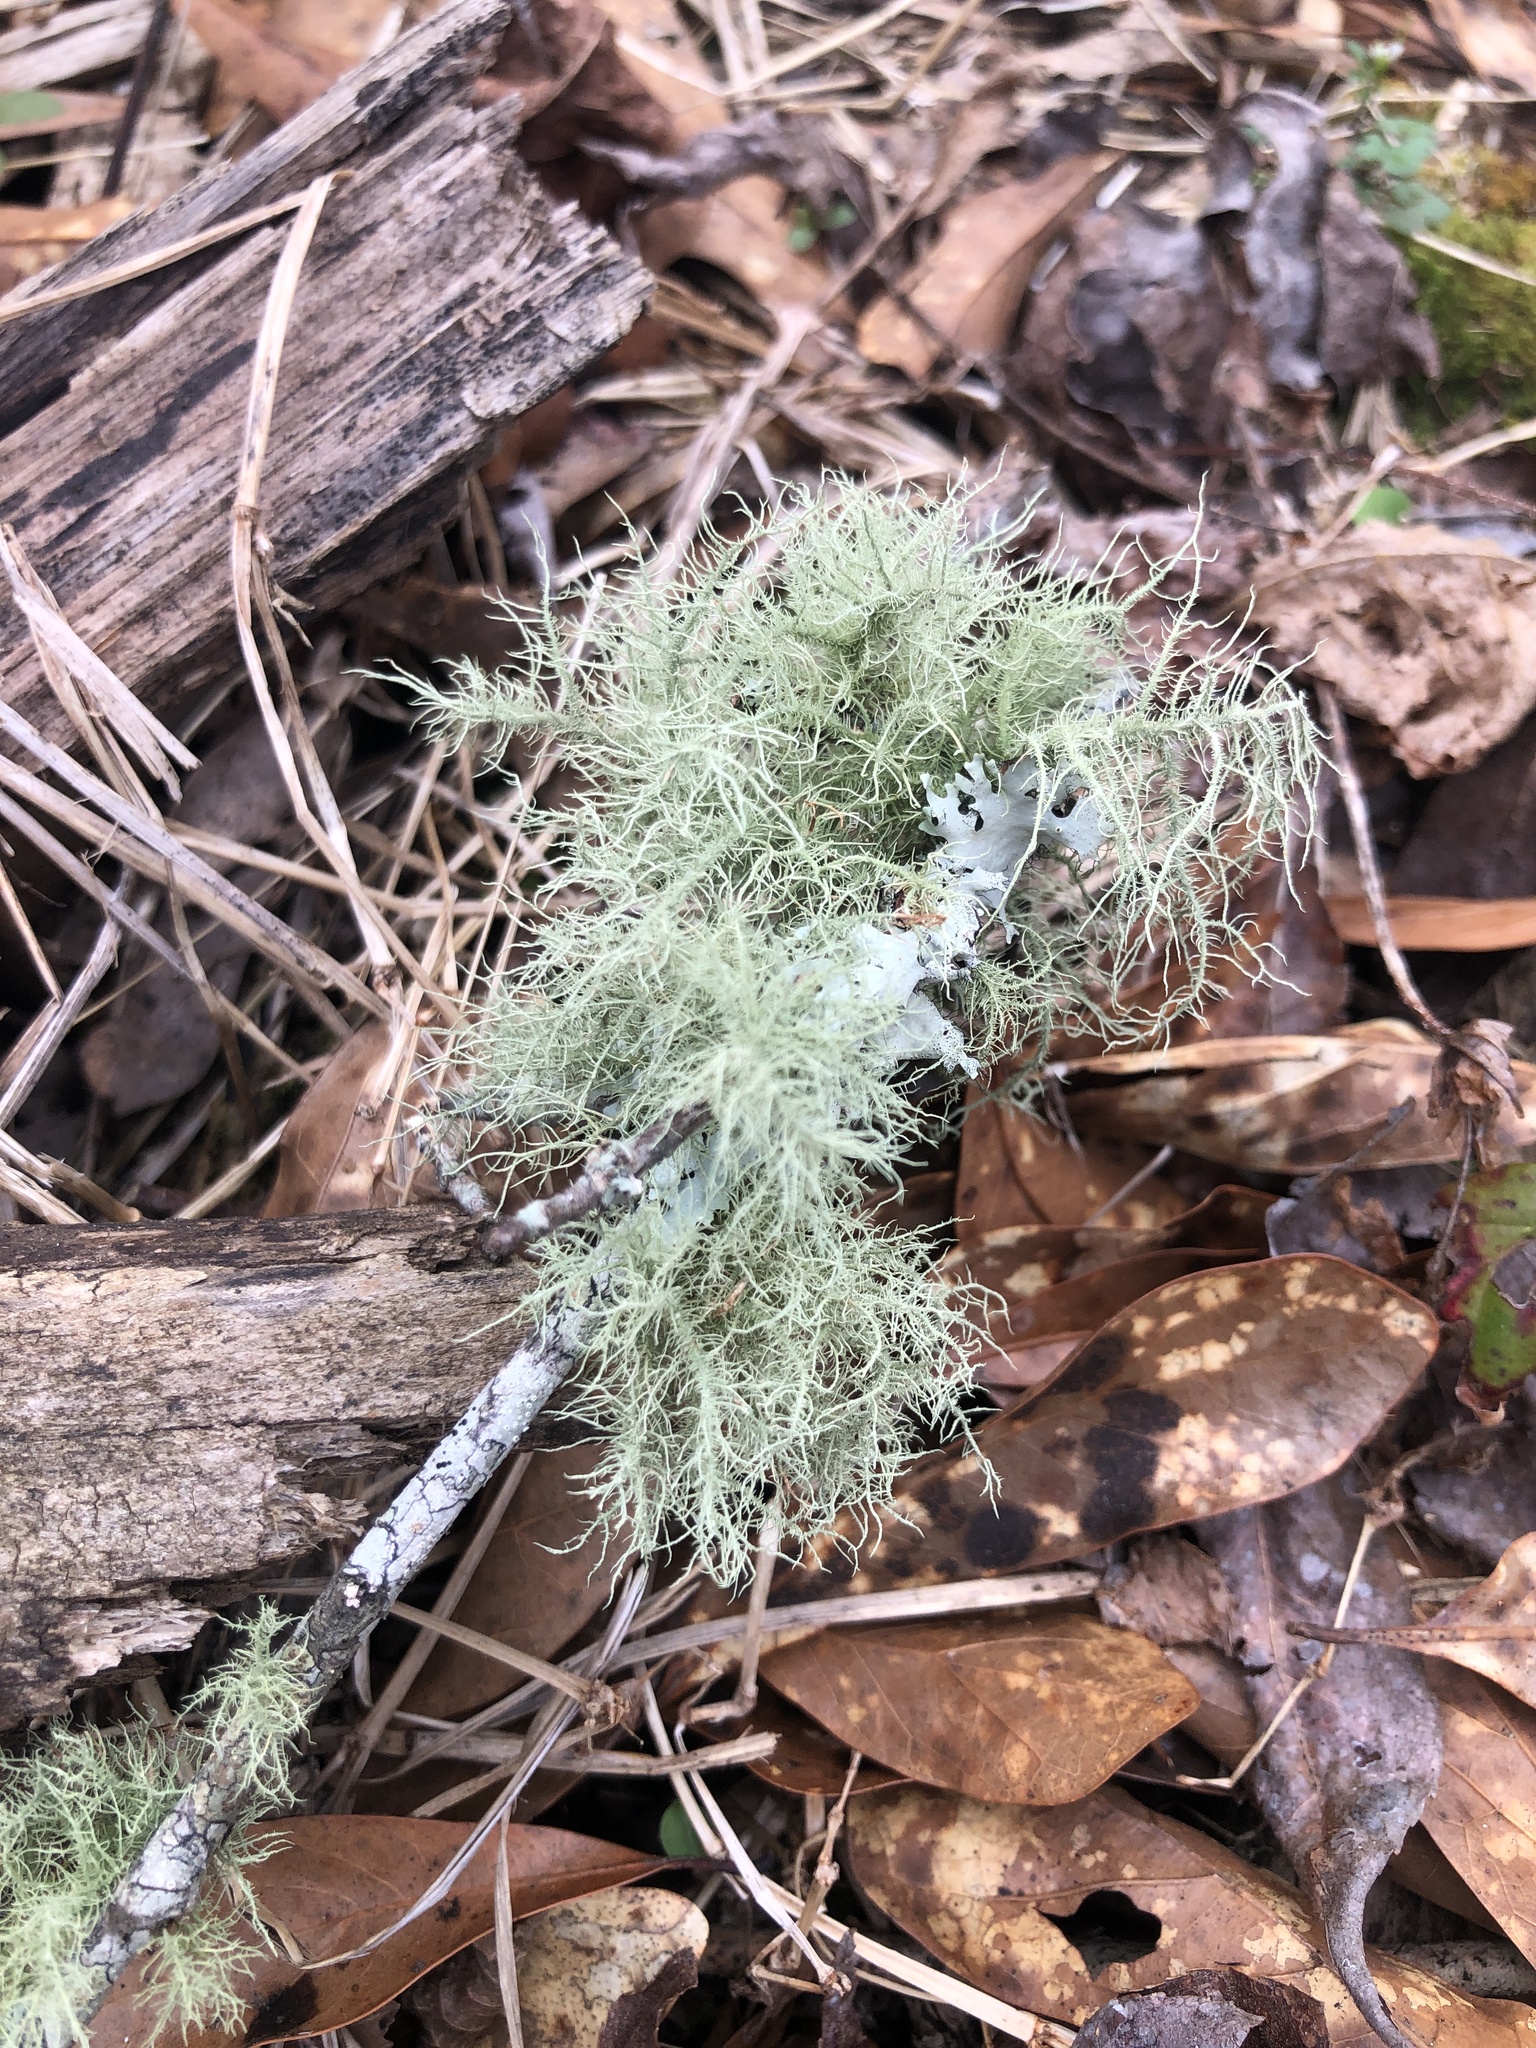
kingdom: Fungi
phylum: Ascomycota
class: Lecanoromycetes
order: Lecanorales
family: Parmeliaceae
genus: Usnea
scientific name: Usnea
